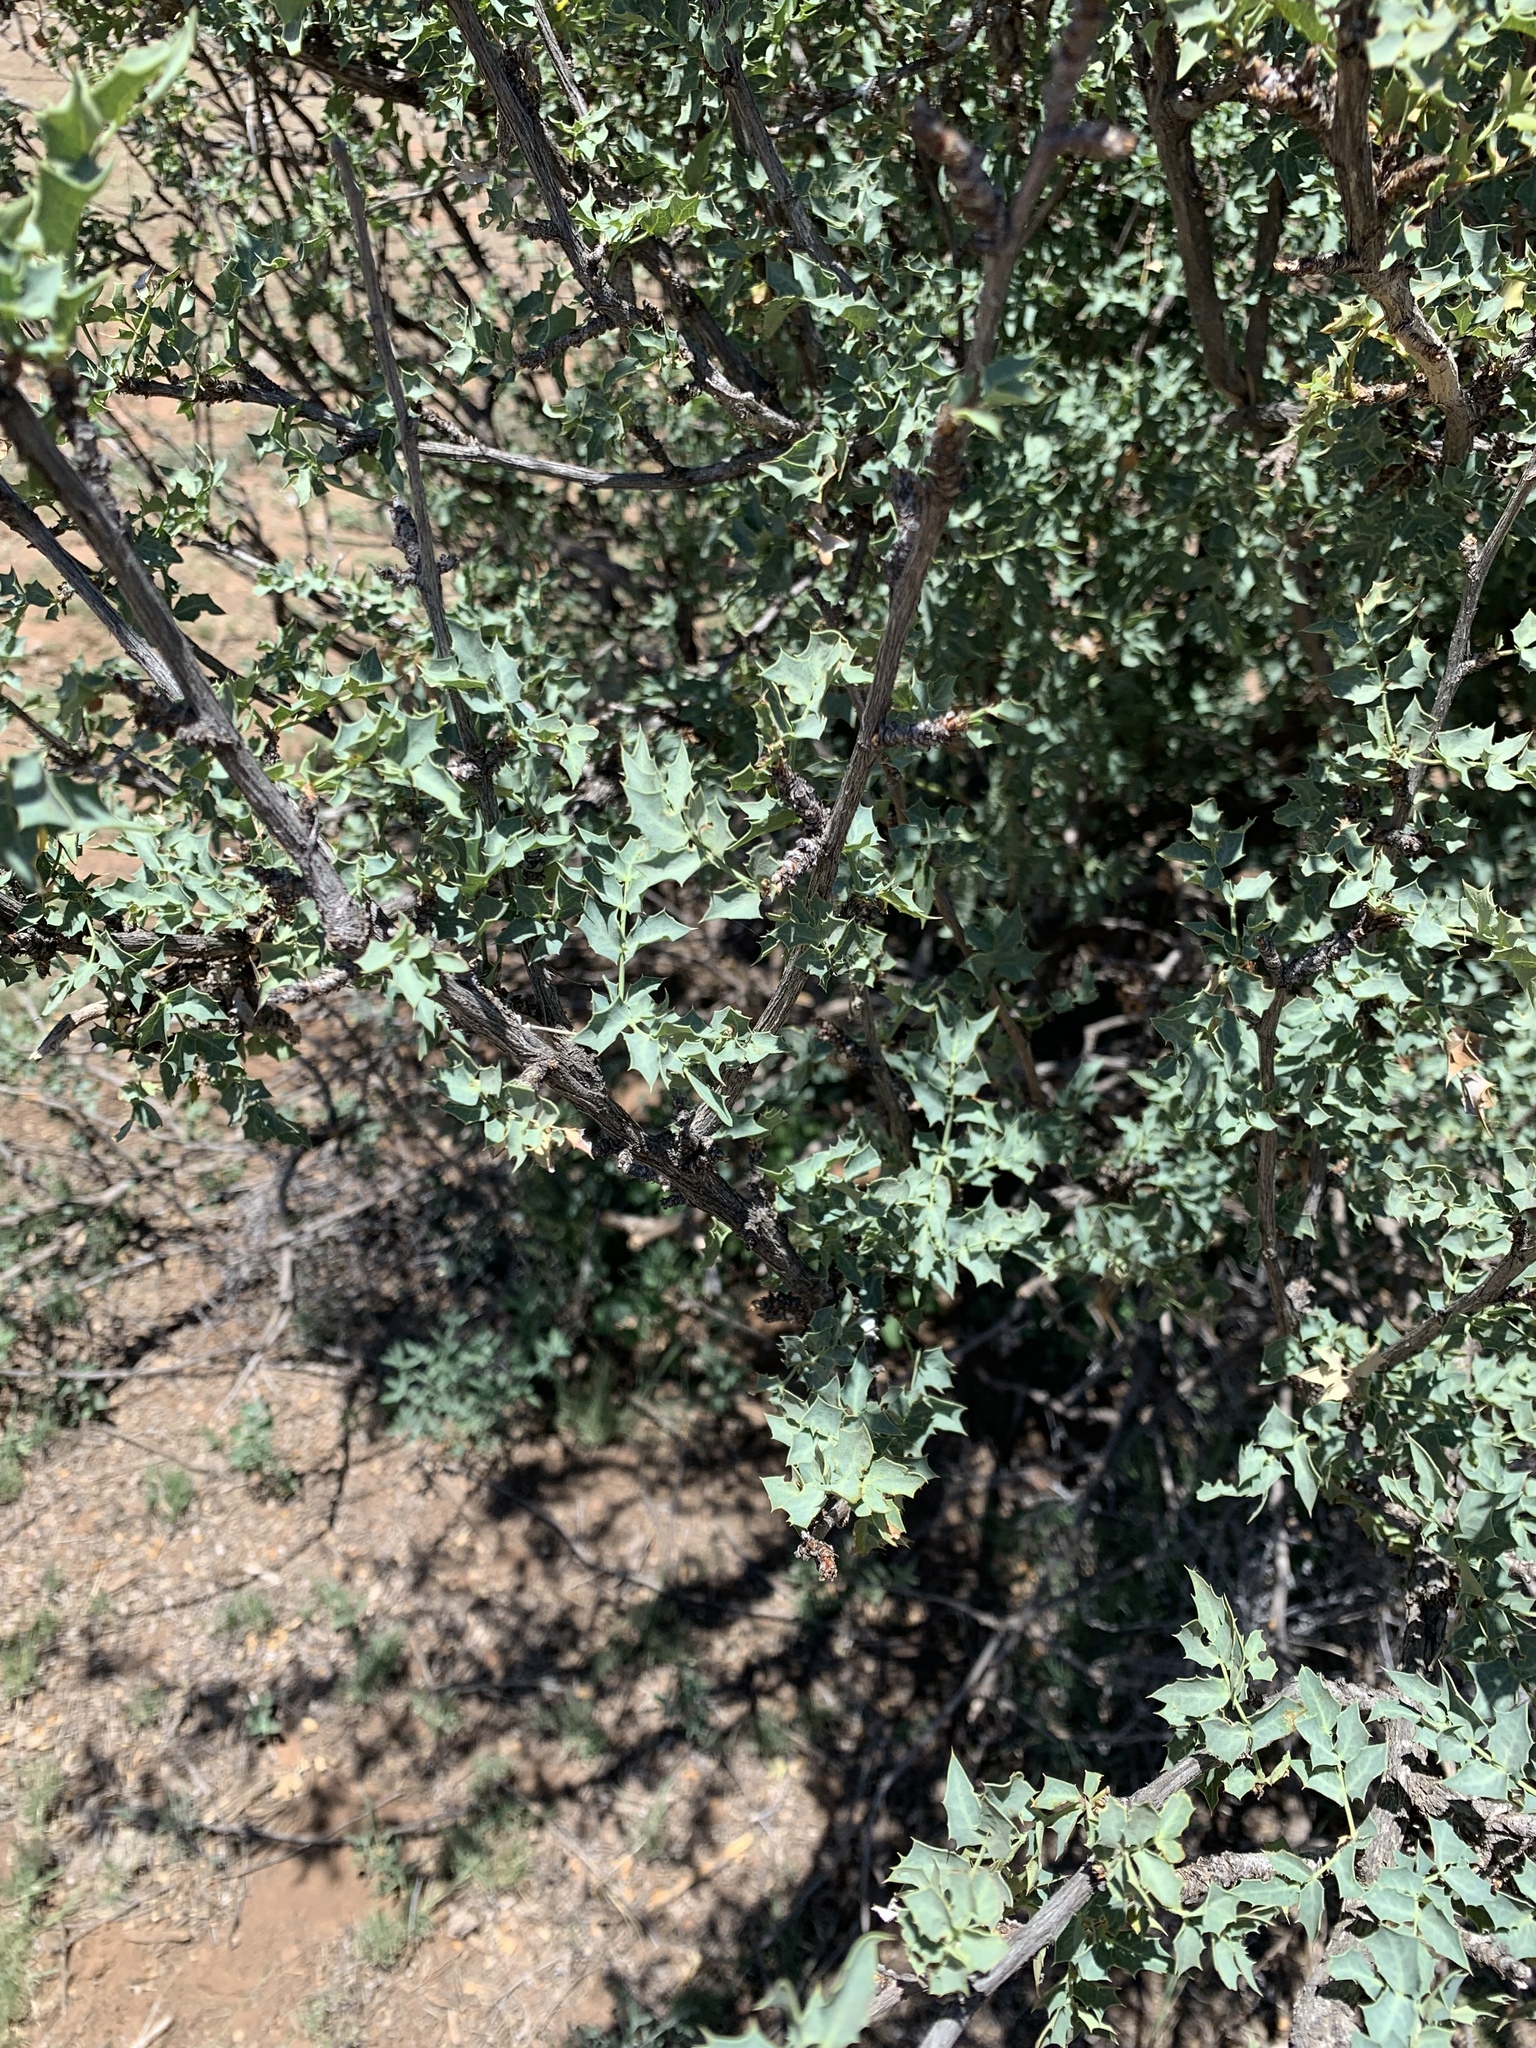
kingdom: Plantae
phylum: Tracheophyta
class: Magnoliopsida
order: Ranunculales
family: Berberidaceae
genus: Alloberberis
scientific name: Alloberberis fremontii
